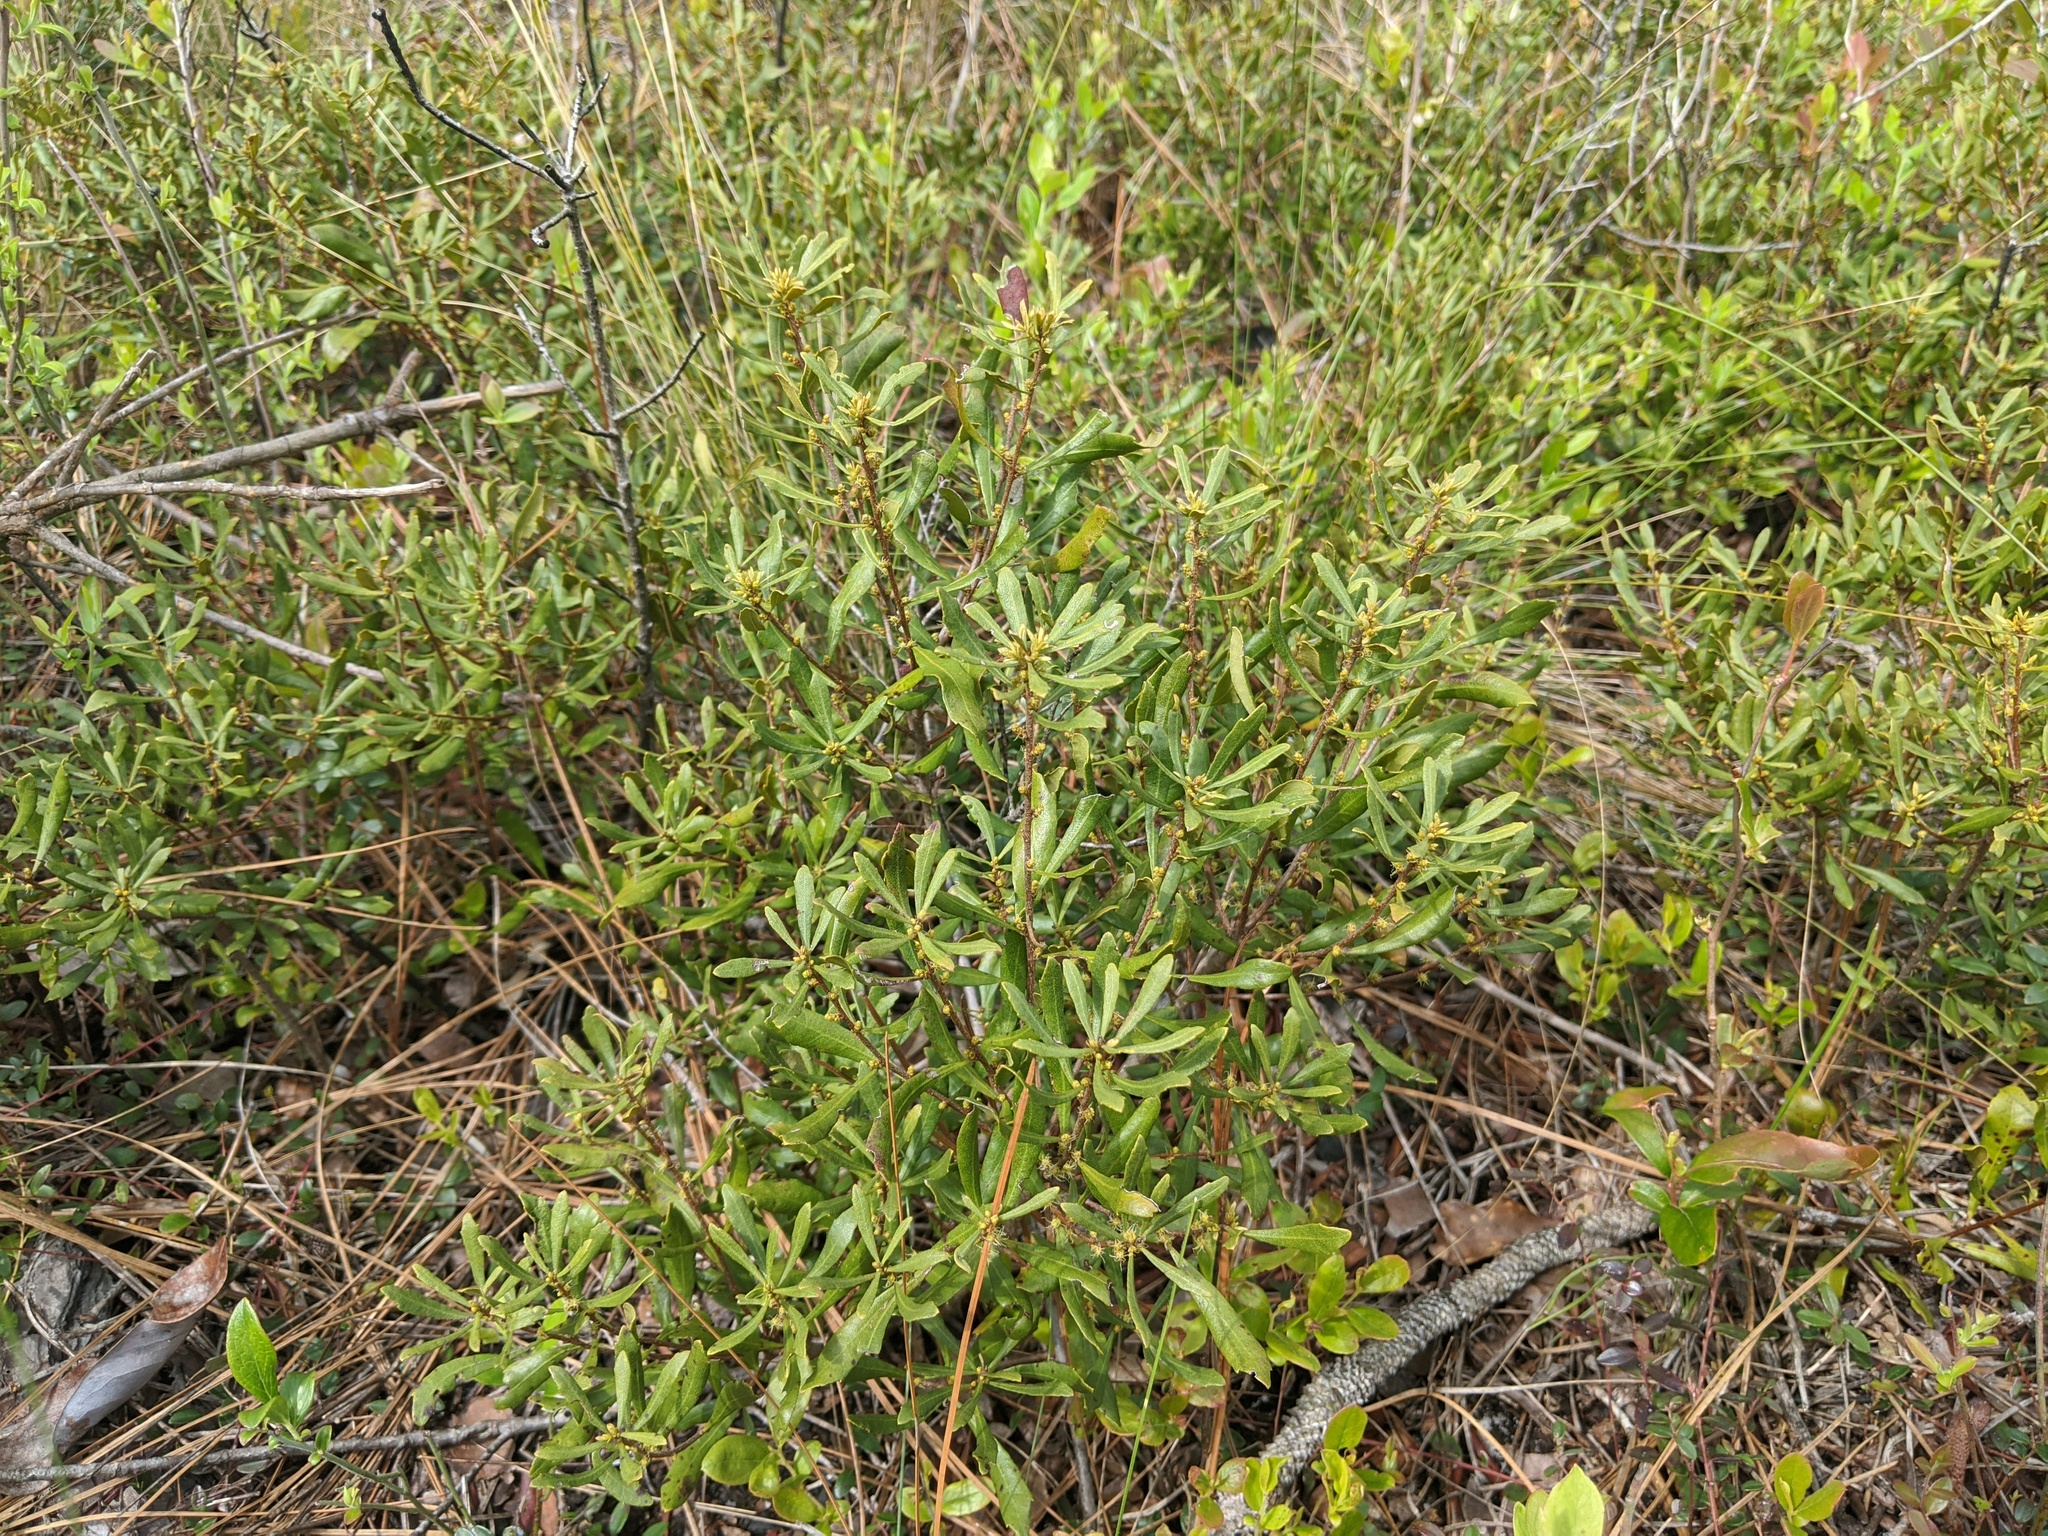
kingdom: Plantae
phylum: Tracheophyta
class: Magnoliopsida
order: Fagales
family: Myricaceae
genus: Morella
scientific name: Morella cerifera
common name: Wax myrtle
